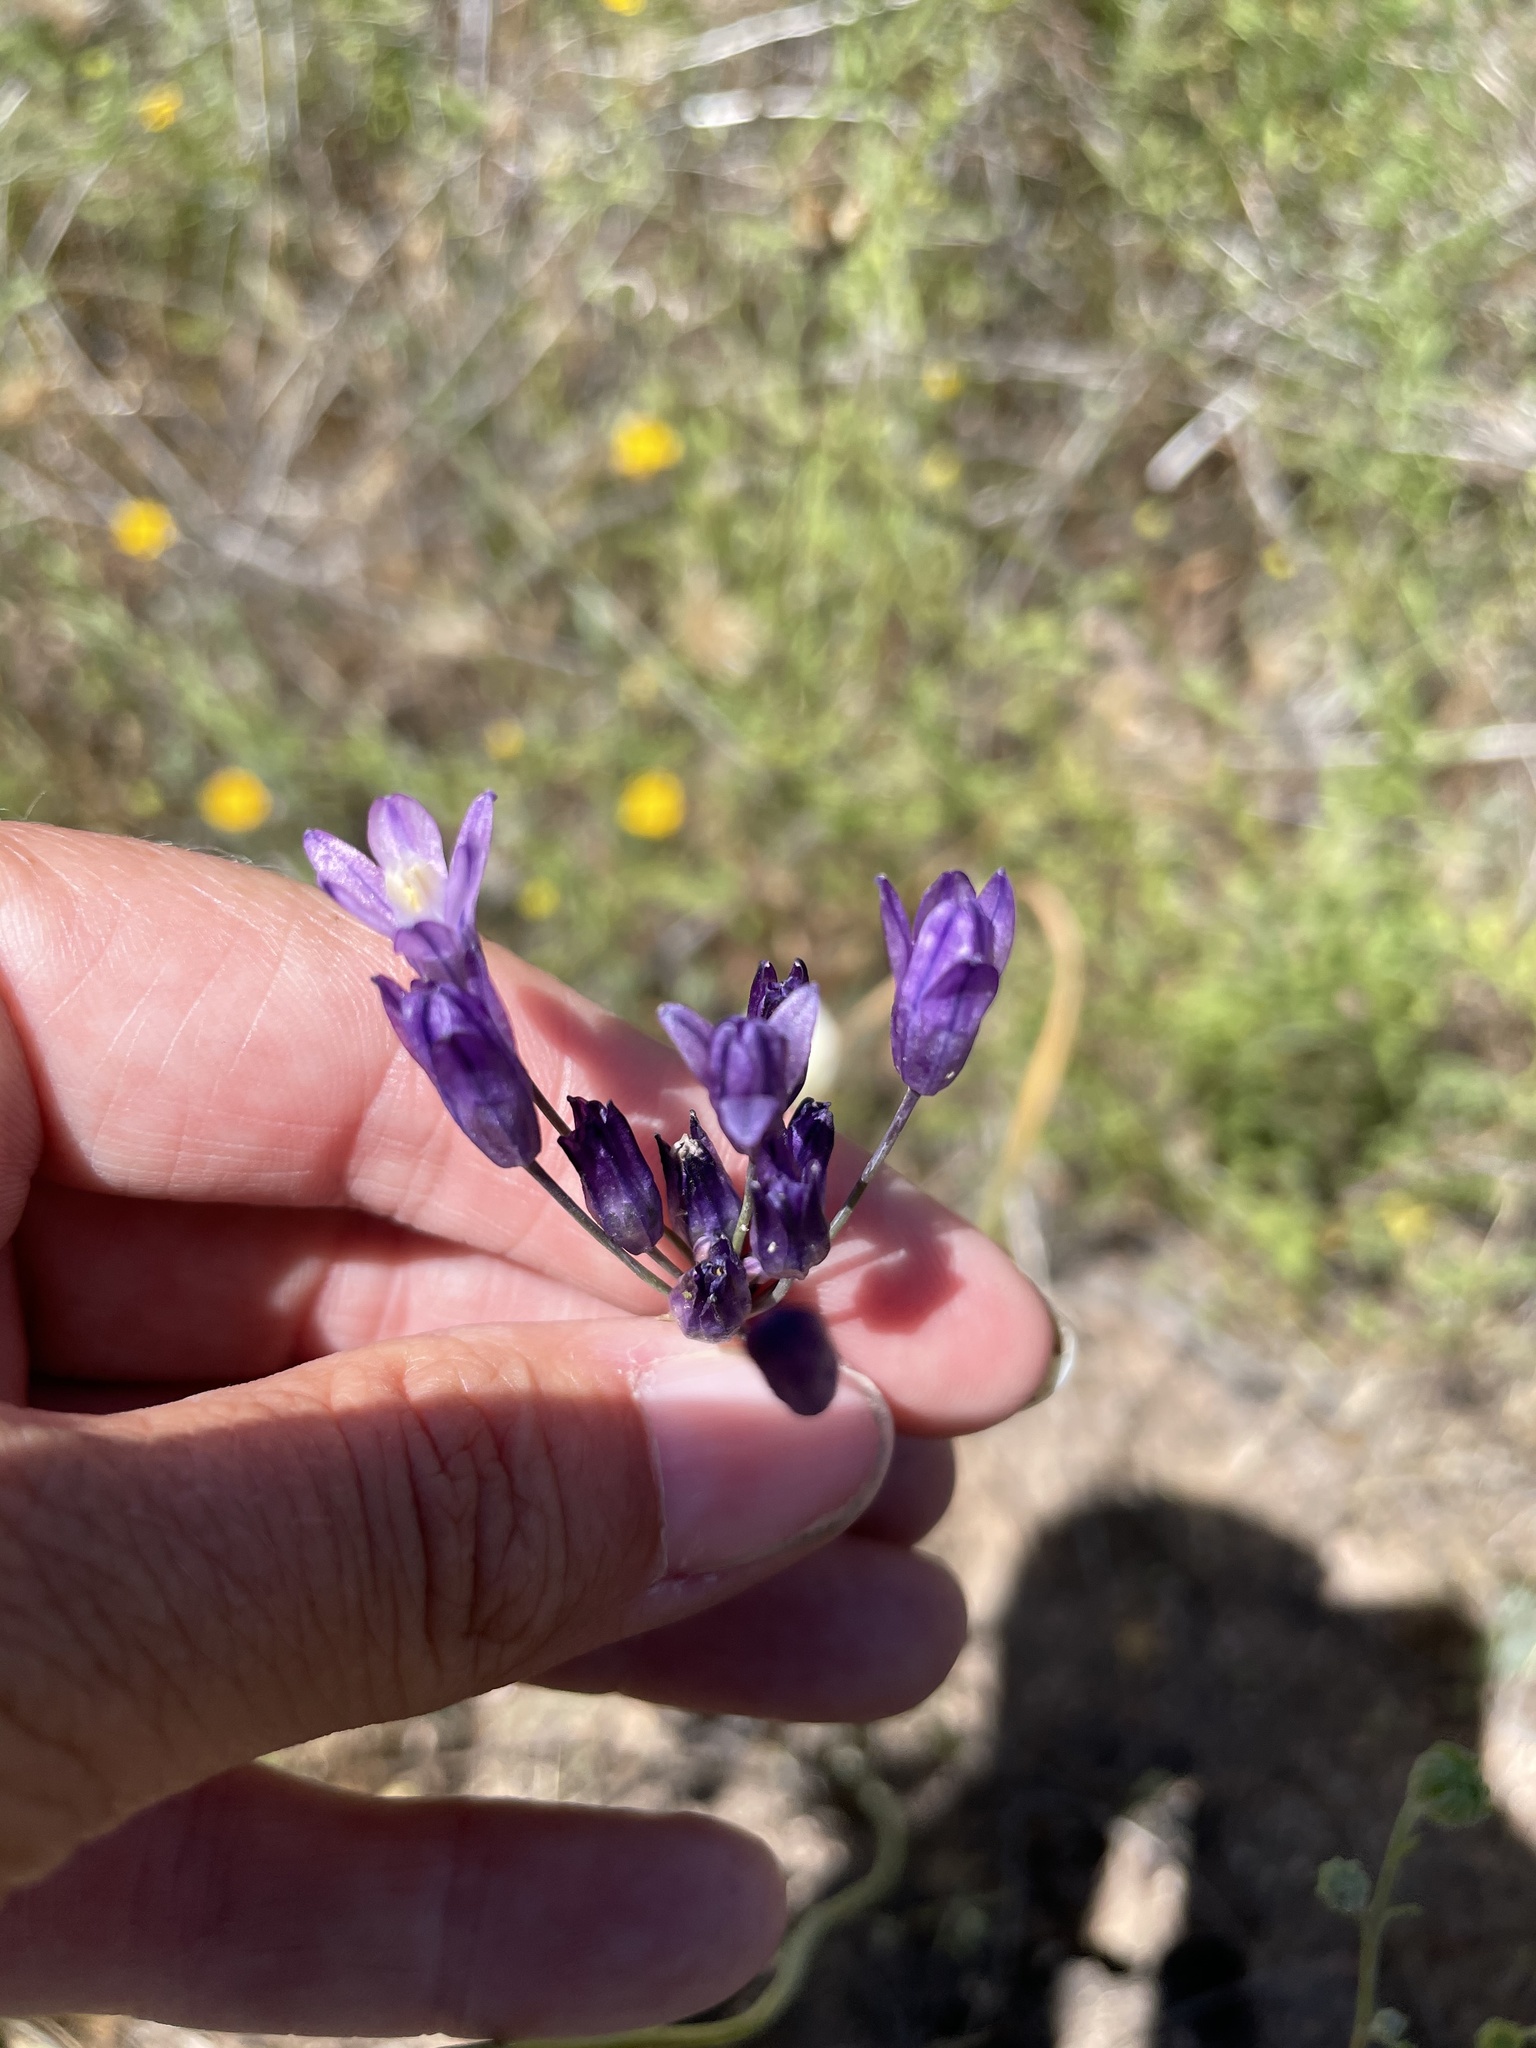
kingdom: Plantae
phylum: Tracheophyta
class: Liliopsida
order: Asparagales
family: Asparagaceae
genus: Dipterostemon
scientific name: Dipterostemon capitatus
